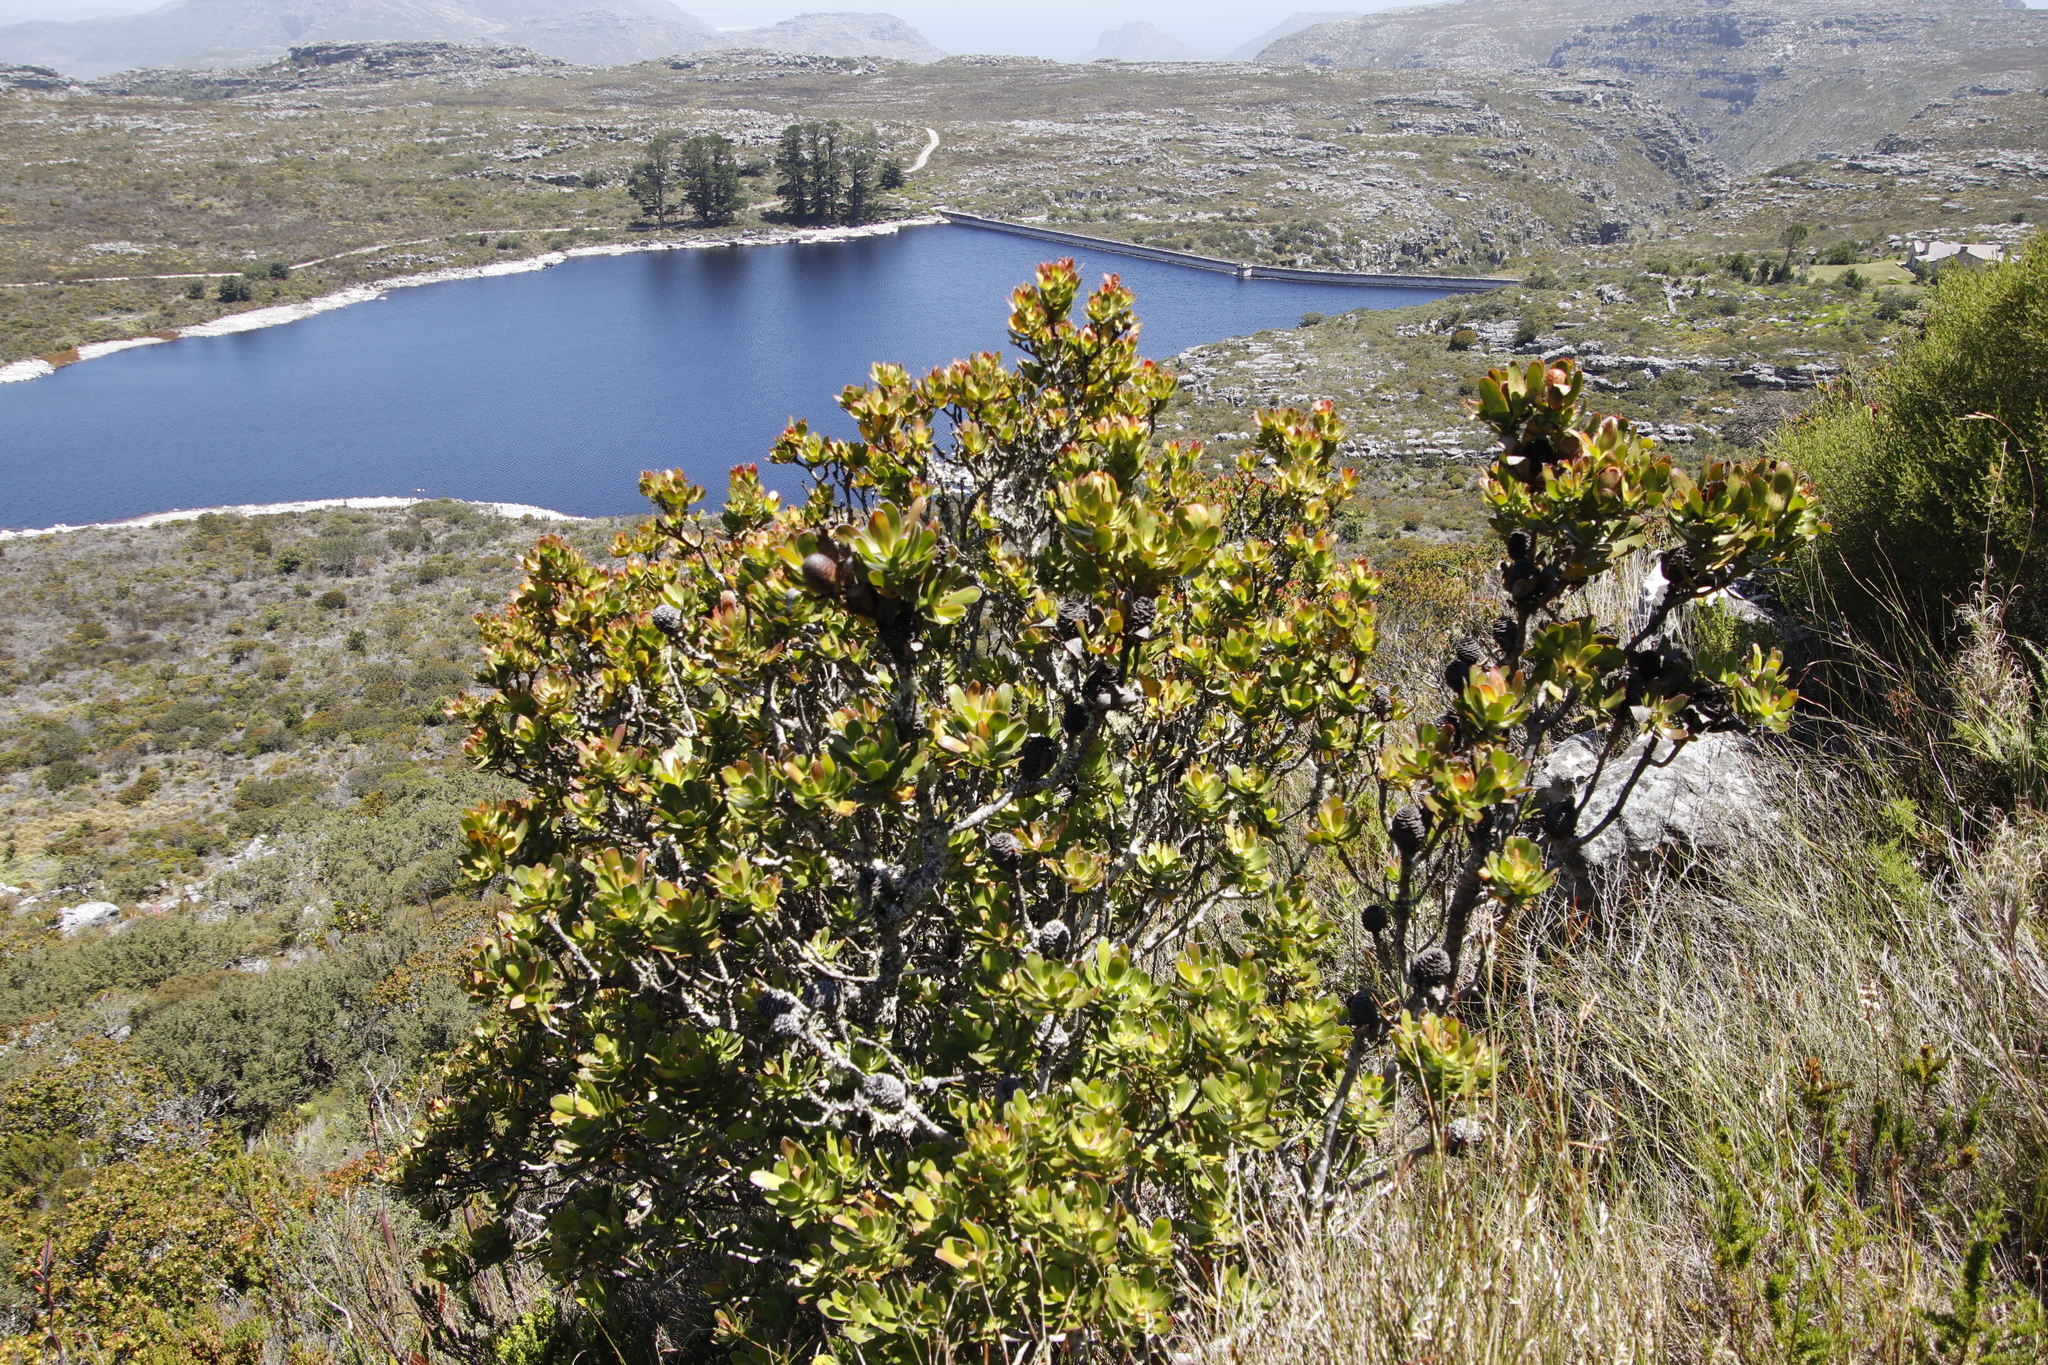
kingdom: Plantae
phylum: Tracheophyta
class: Magnoliopsida
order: Proteales
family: Proteaceae
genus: Leucadendron
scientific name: Leucadendron strobilinum
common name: Mountain rose
